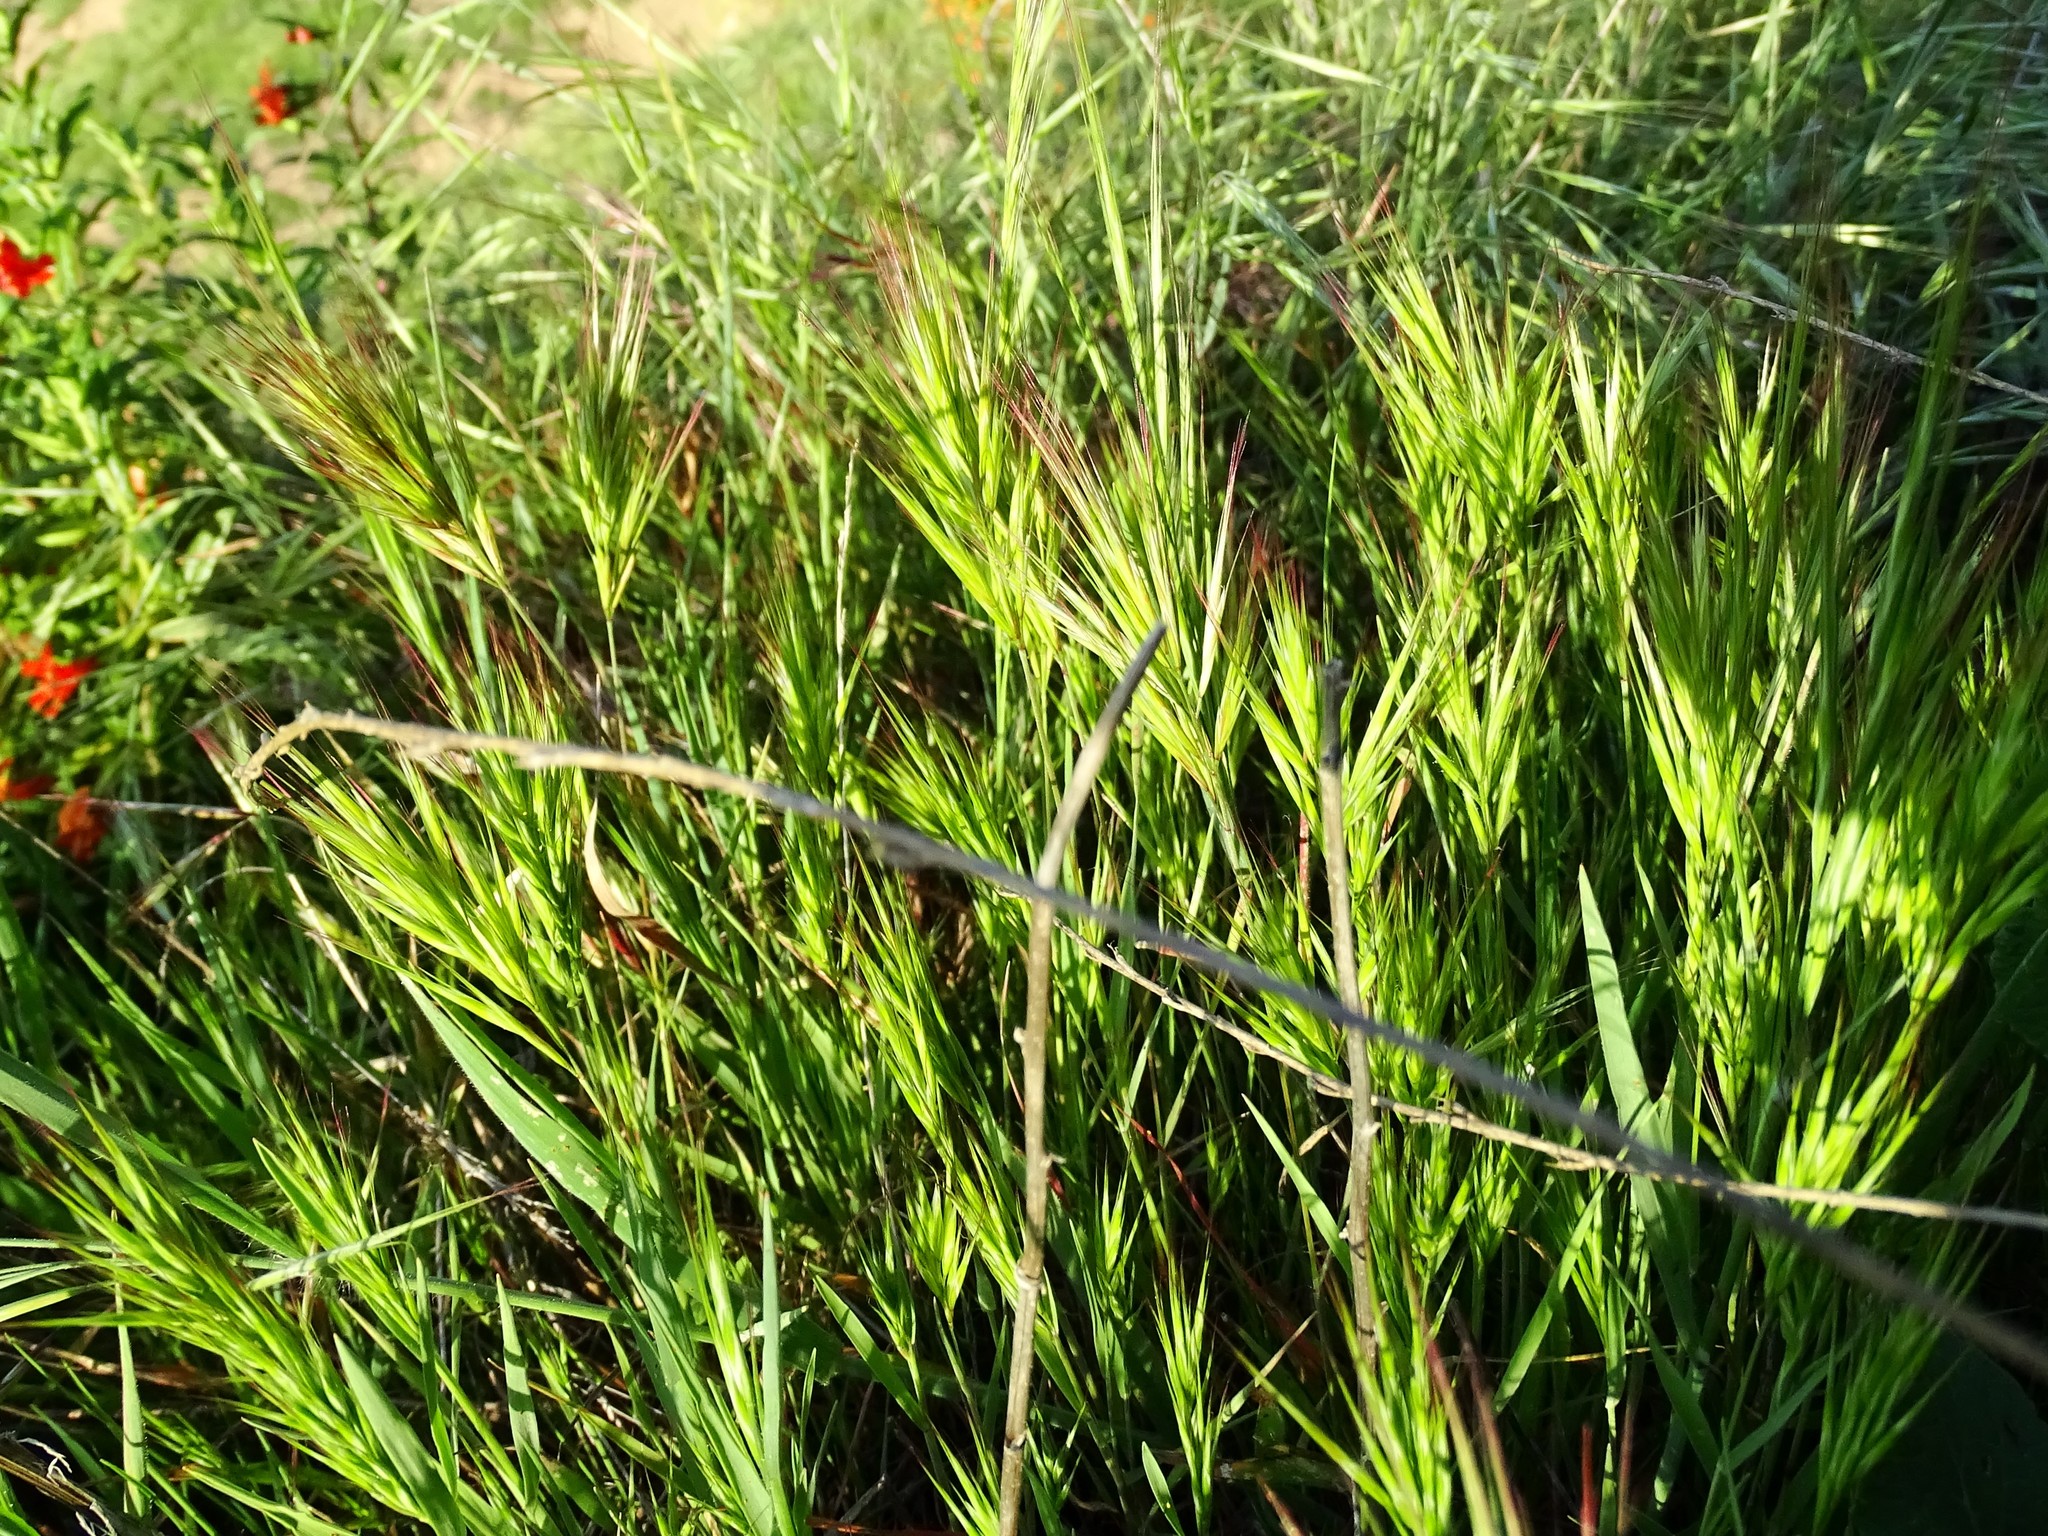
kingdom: Plantae
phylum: Tracheophyta
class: Liliopsida
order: Poales
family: Poaceae
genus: Bromus
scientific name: Bromus madritensis
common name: Compact brome
